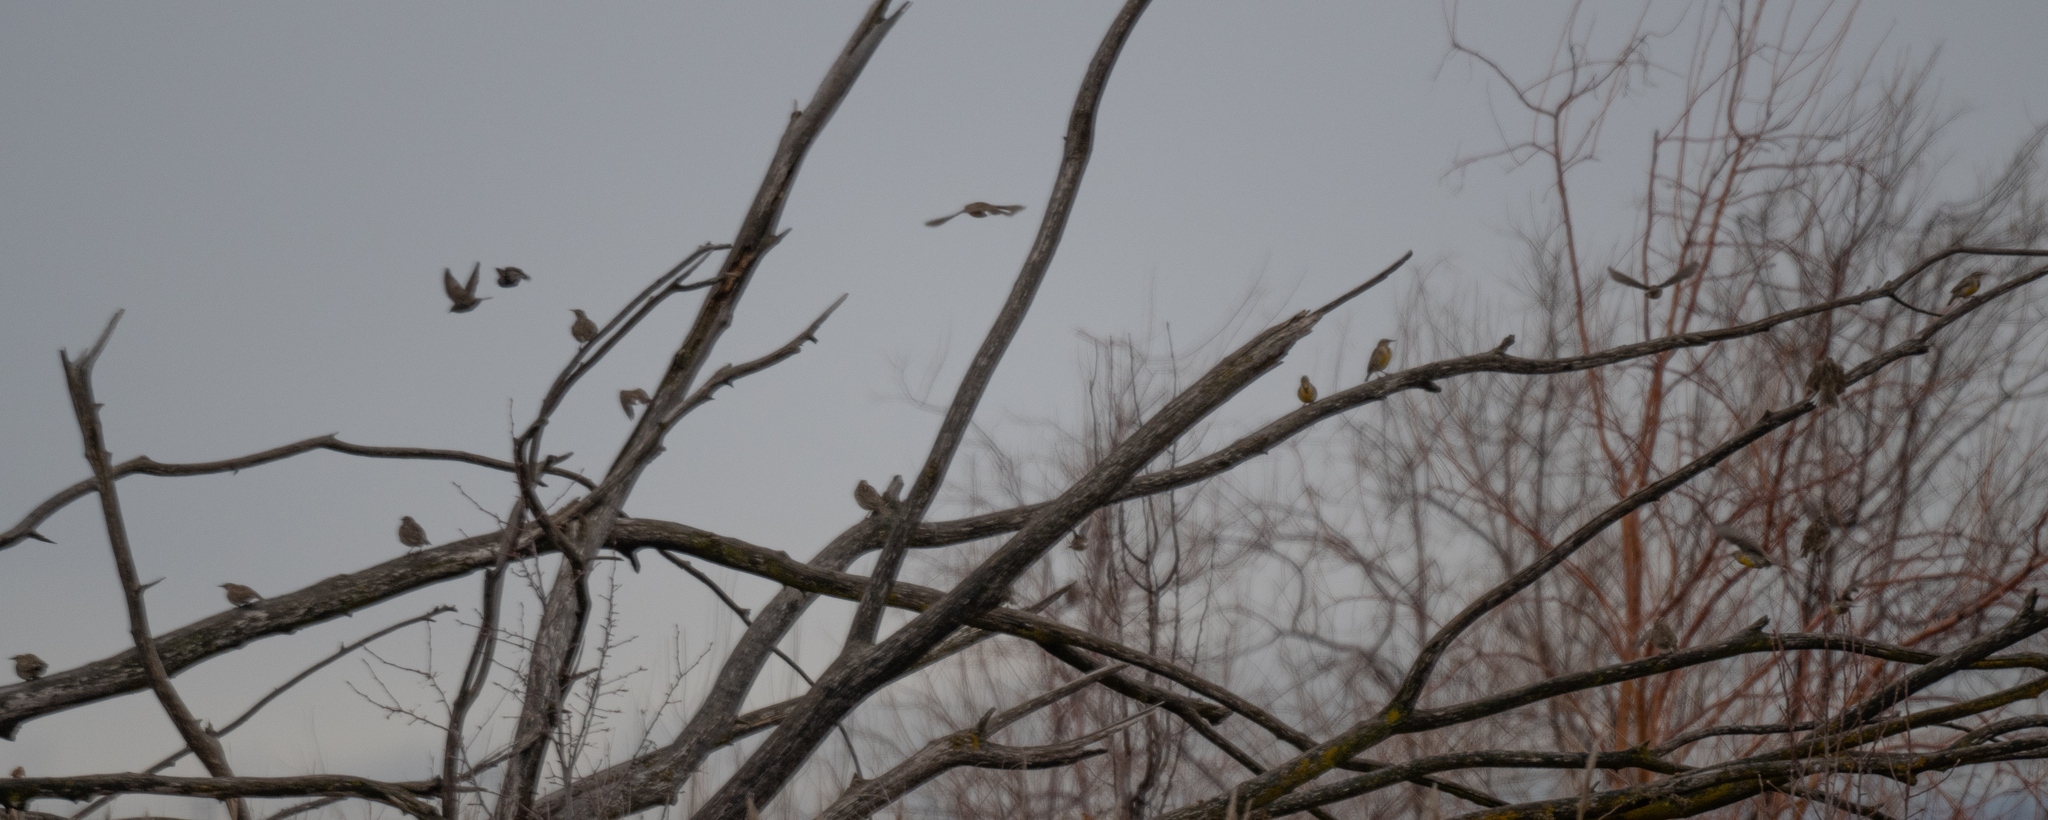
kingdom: Animalia
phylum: Chordata
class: Aves
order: Passeriformes
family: Icteridae
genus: Sturnella
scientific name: Sturnella neglecta
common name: Western meadowlark
